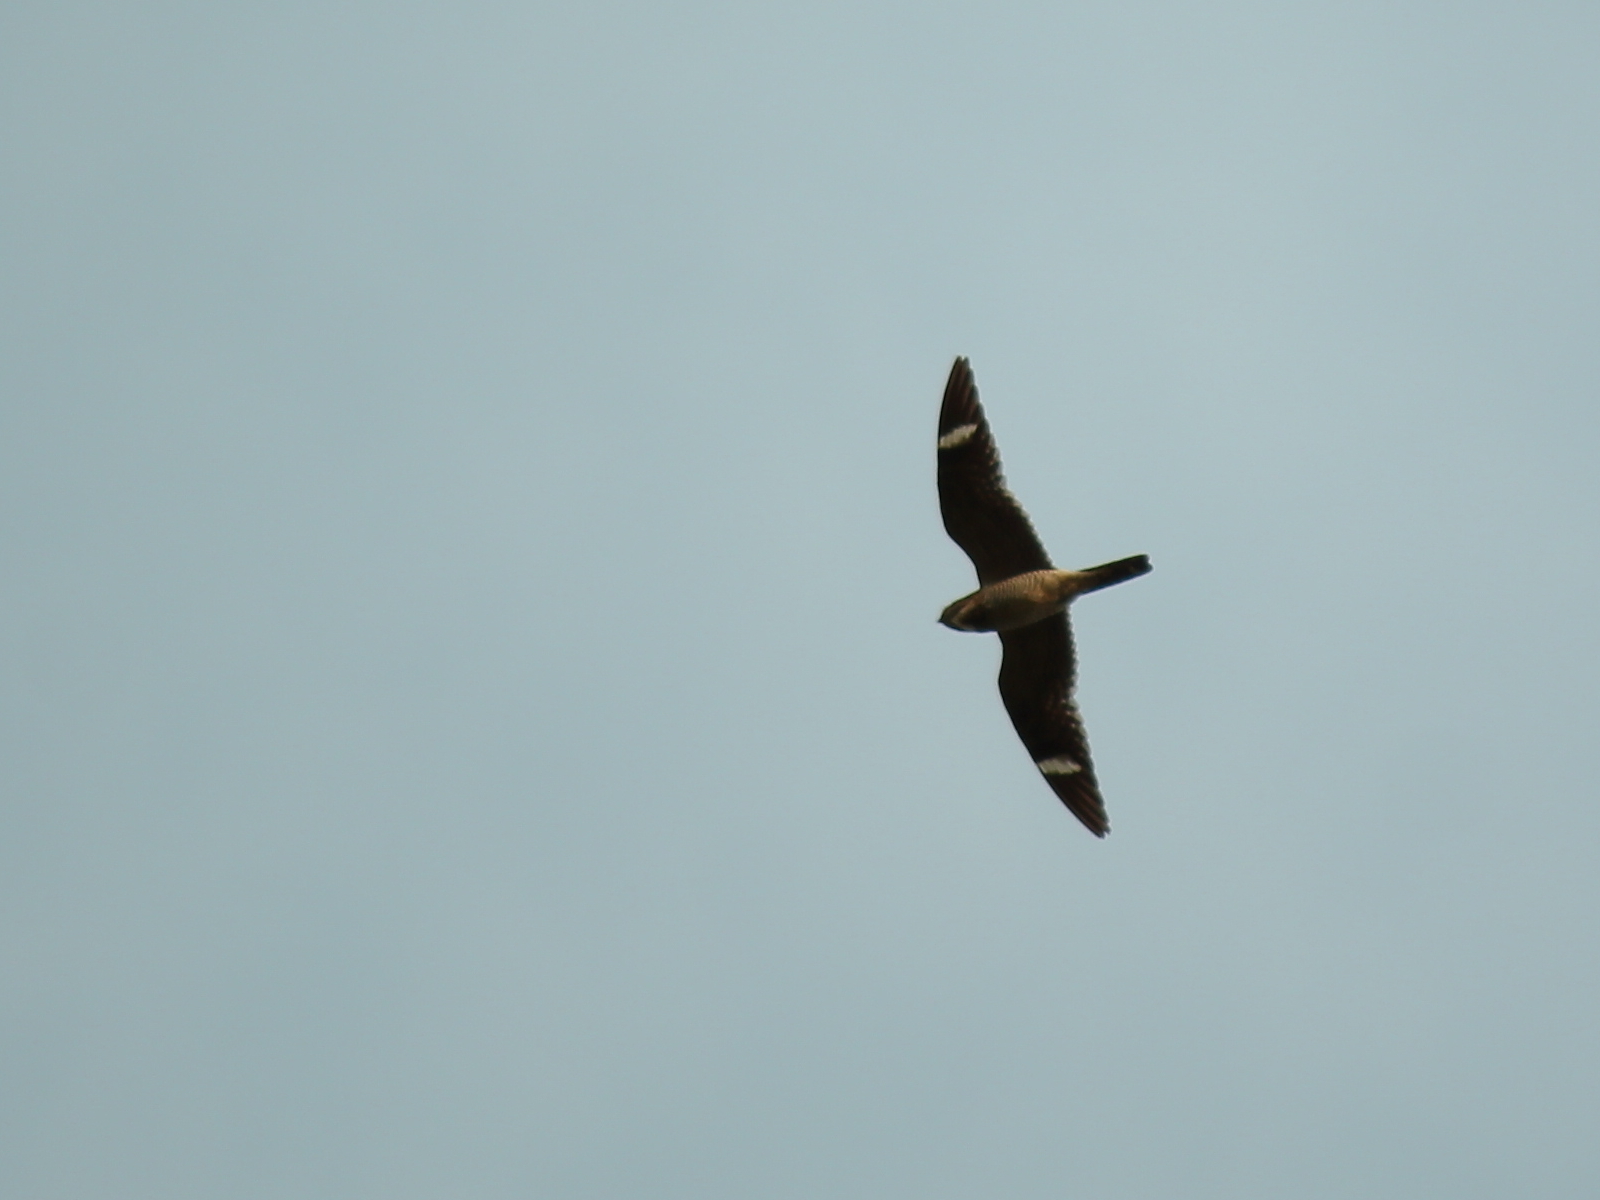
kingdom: Animalia
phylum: Chordata
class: Aves
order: Caprimulgiformes
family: Caprimulgidae
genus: Chordeiles
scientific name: Chordeiles minor
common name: Common nighthawk
